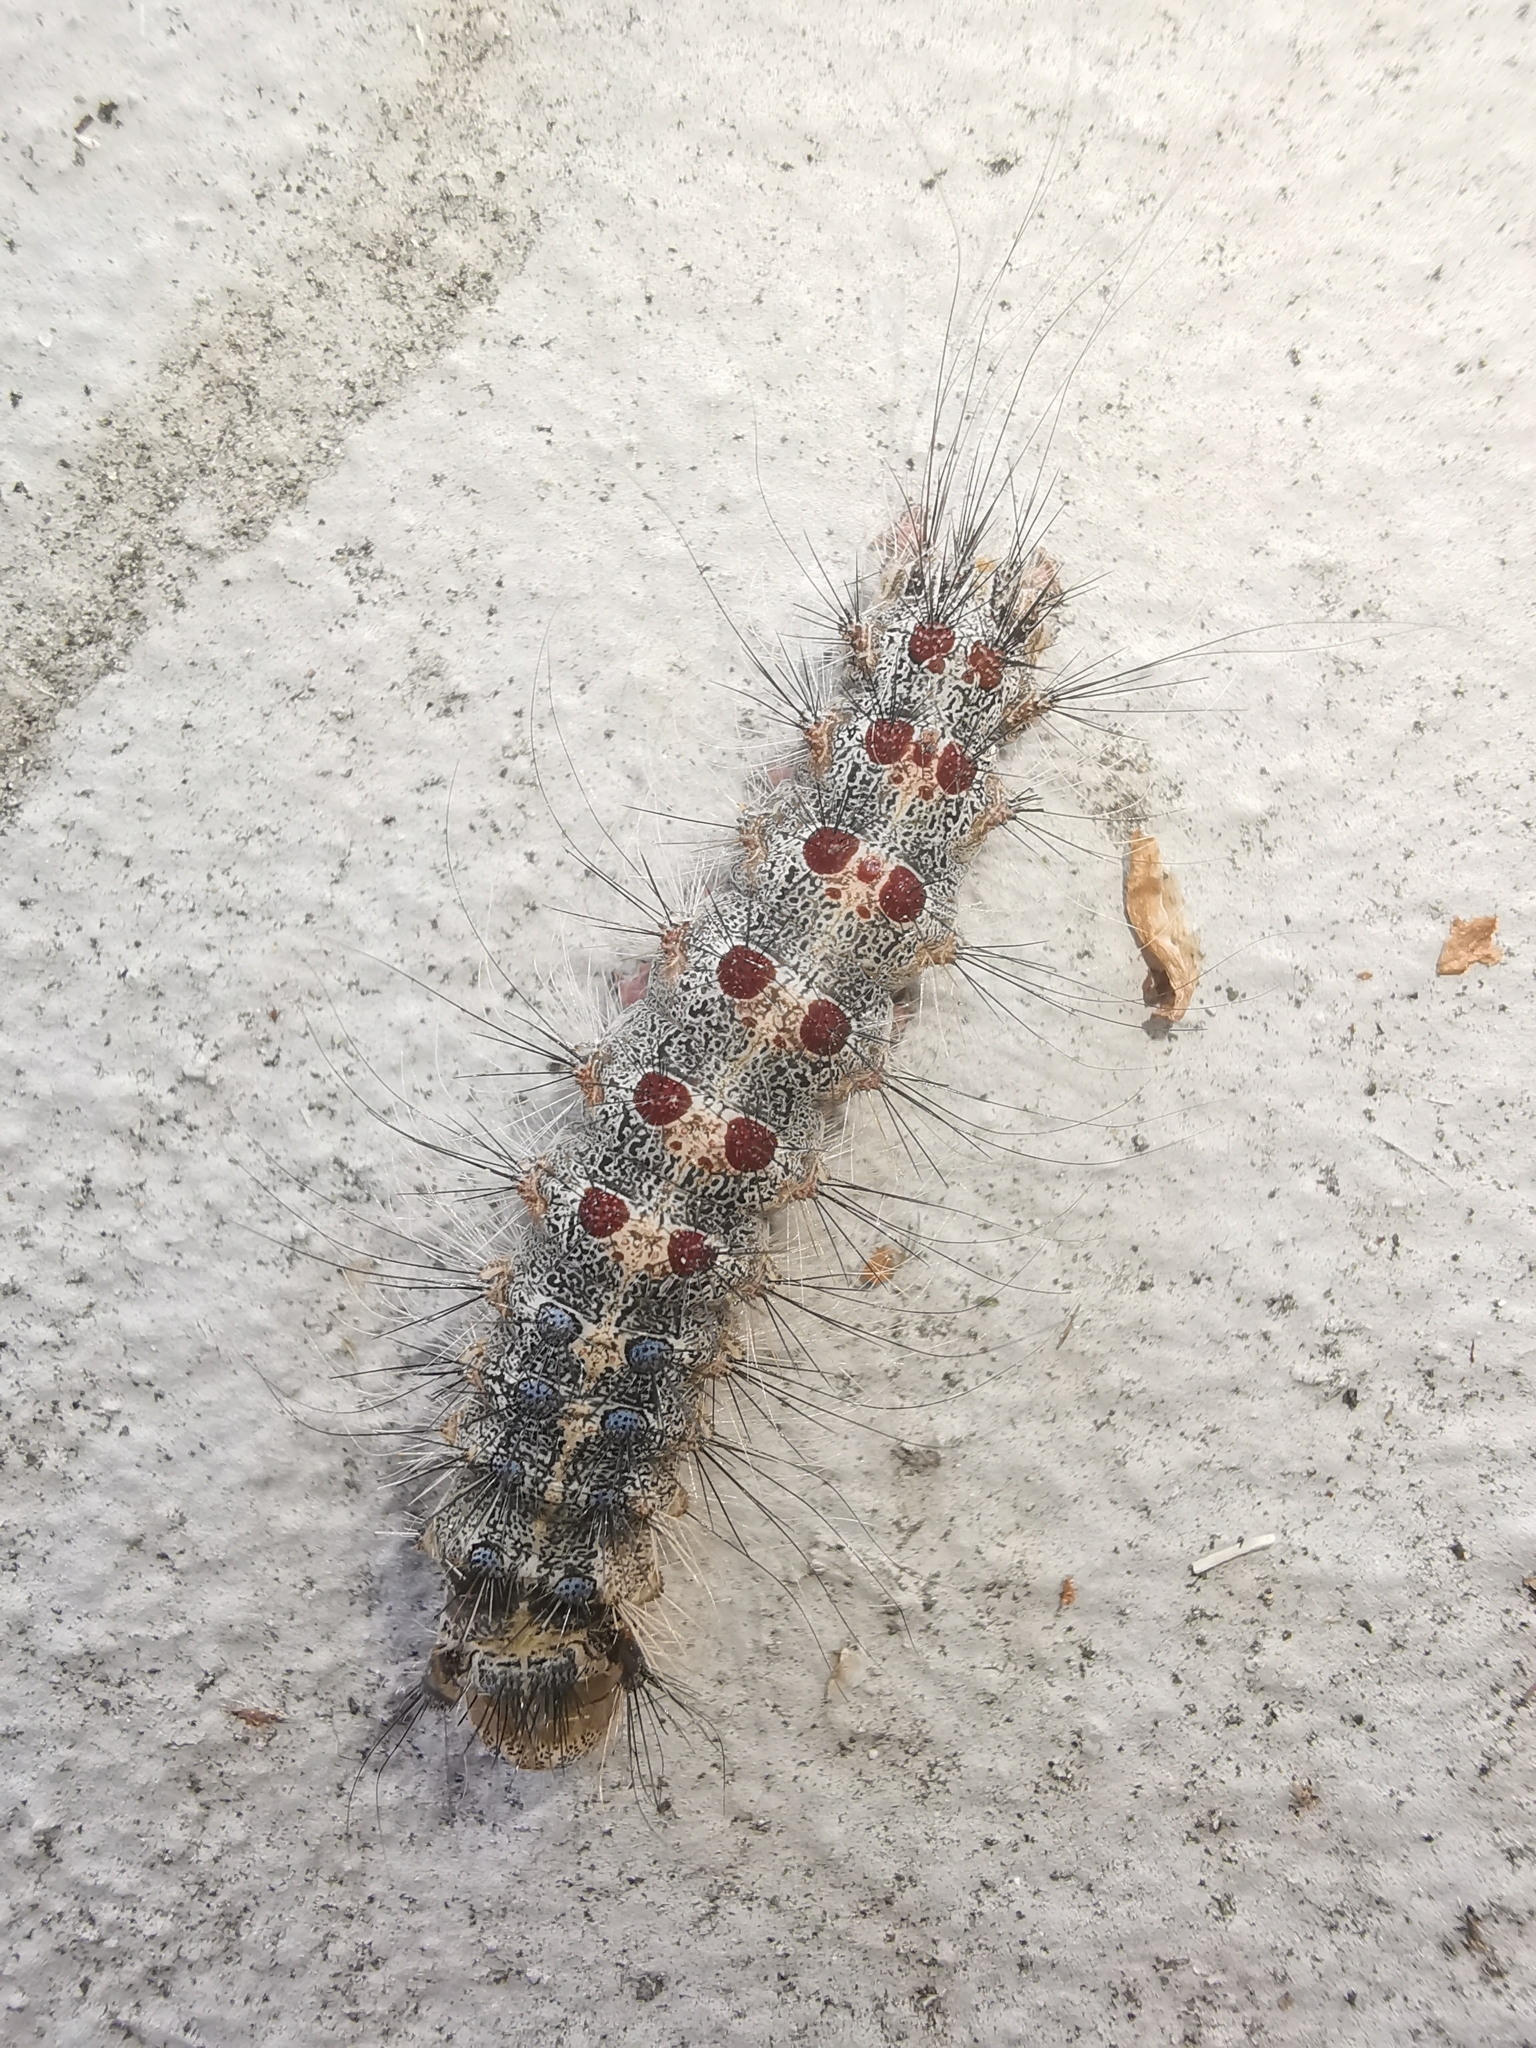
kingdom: Animalia
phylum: Arthropoda
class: Insecta
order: Lepidoptera
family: Erebidae
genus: Lymantria
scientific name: Lymantria dispar
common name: Gypsy moth
